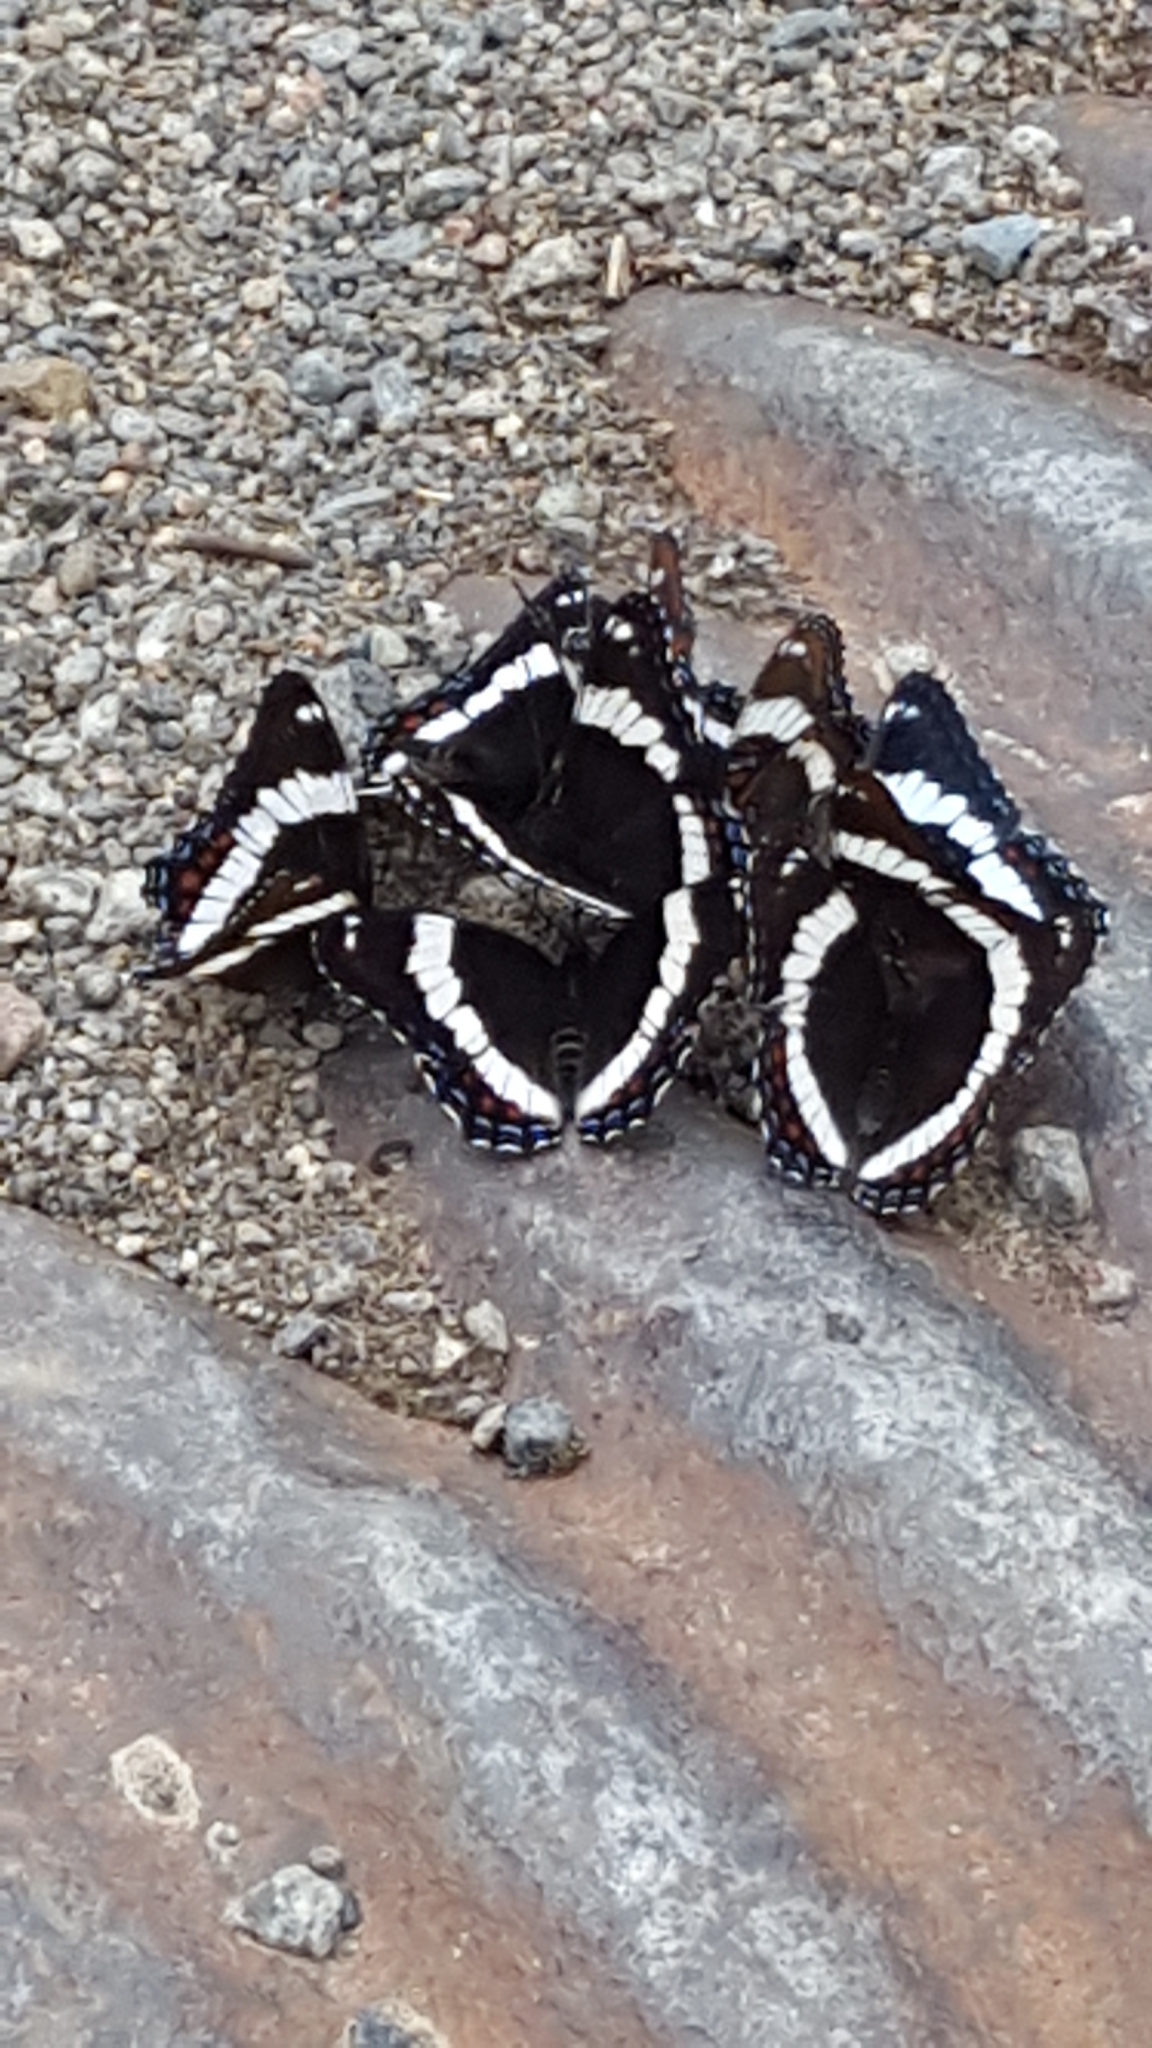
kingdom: Animalia
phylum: Arthropoda
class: Insecta
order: Lepidoptera
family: Nymphalidae
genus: Limenitis
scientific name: Limenitis arthemis
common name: Red-spotted admiral
